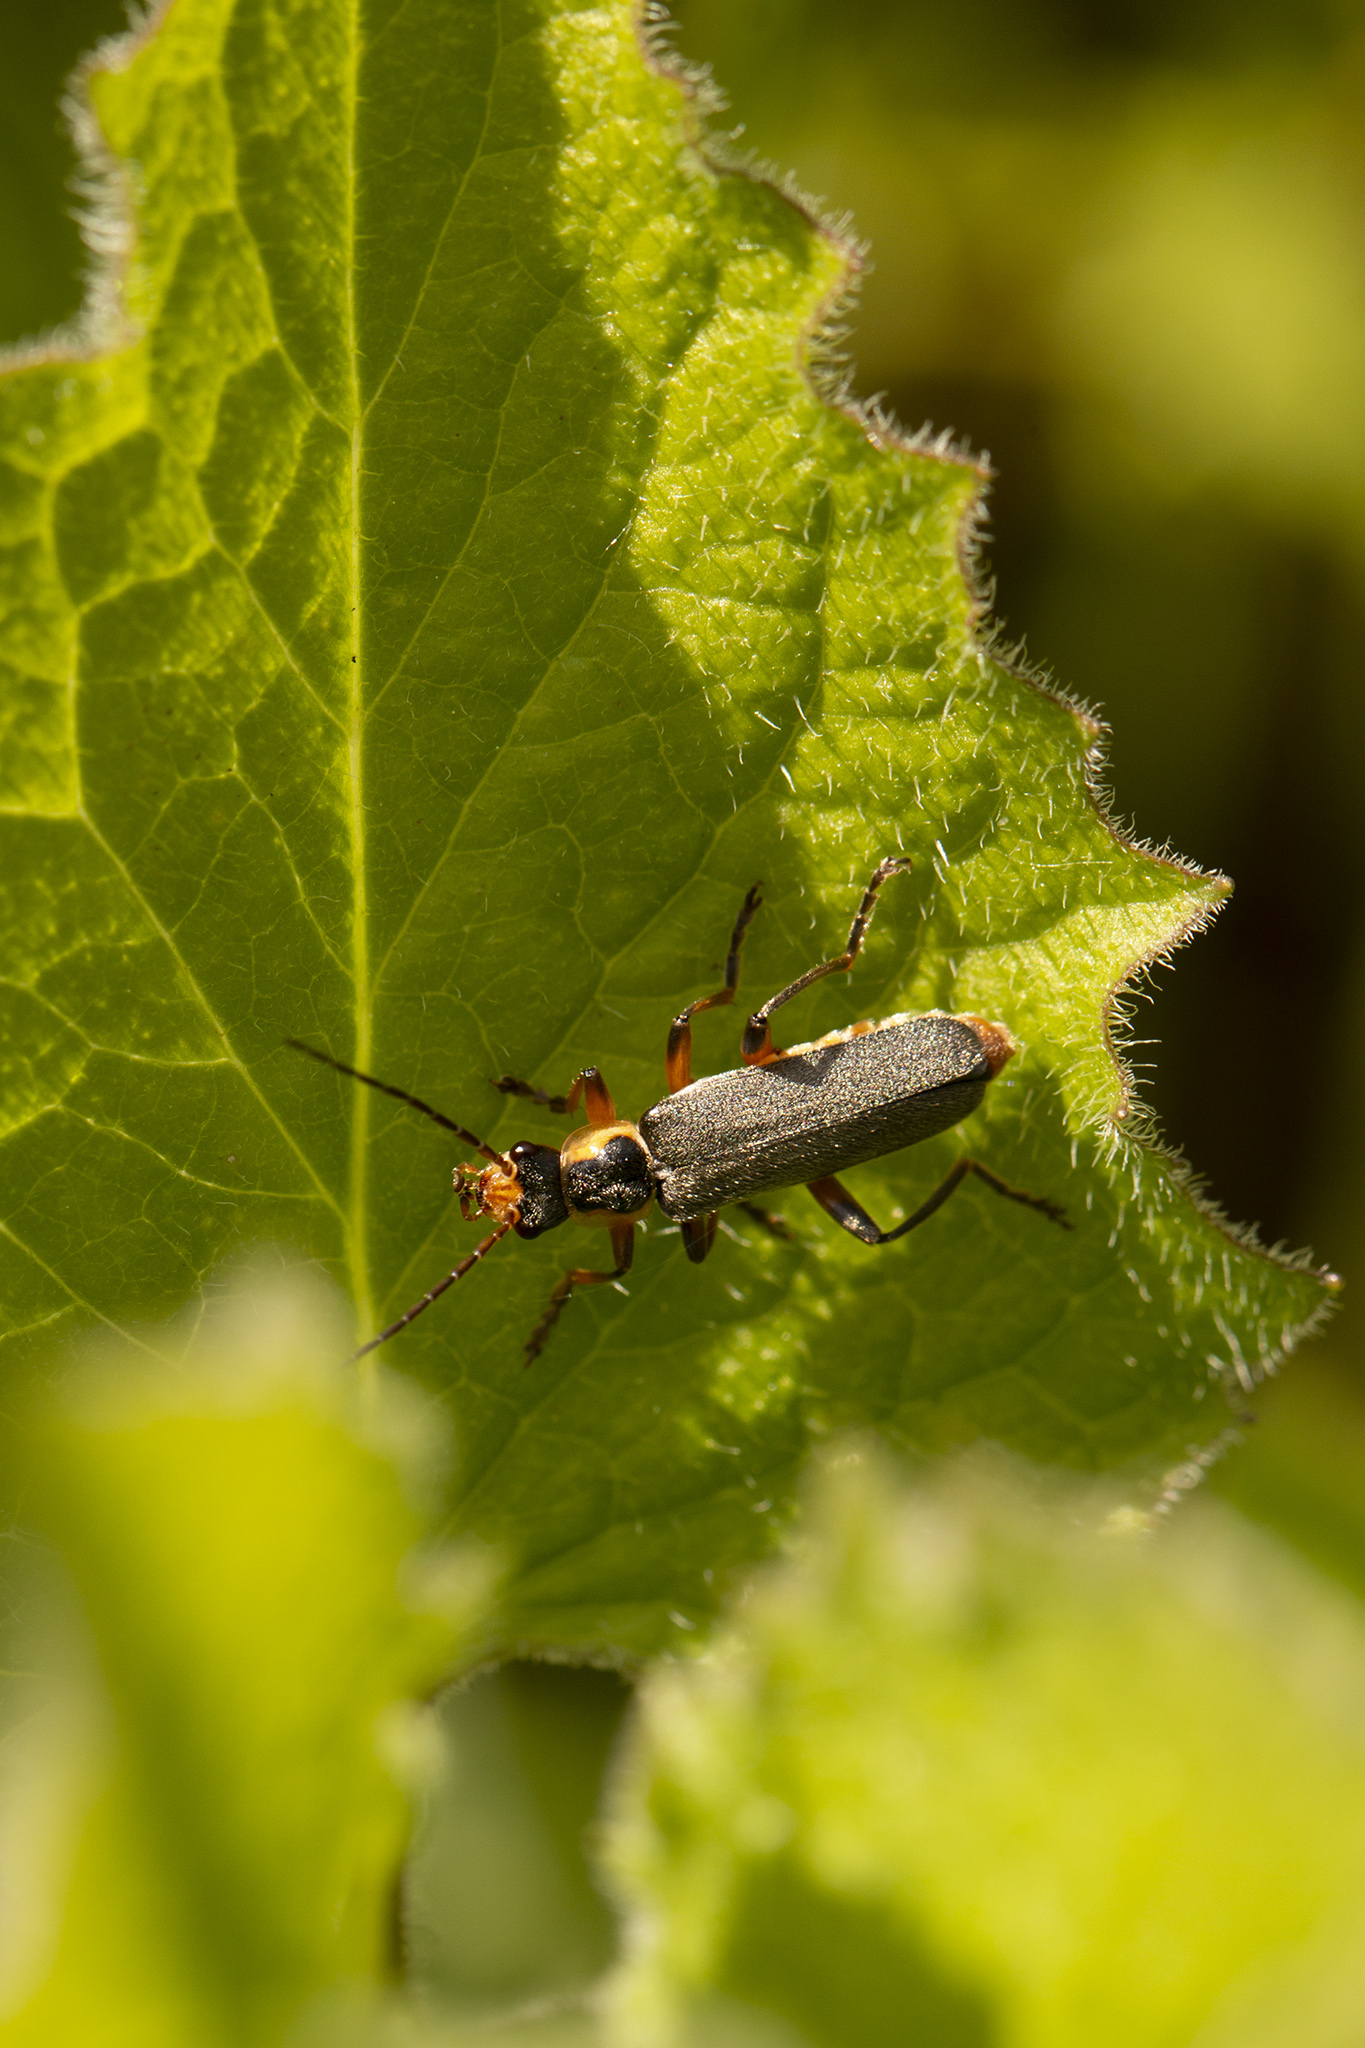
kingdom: Animalia
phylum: Arthropoda
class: Insecta
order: Coleoptera
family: Cantharidae
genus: Cantharis
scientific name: Cantharis nigricans
